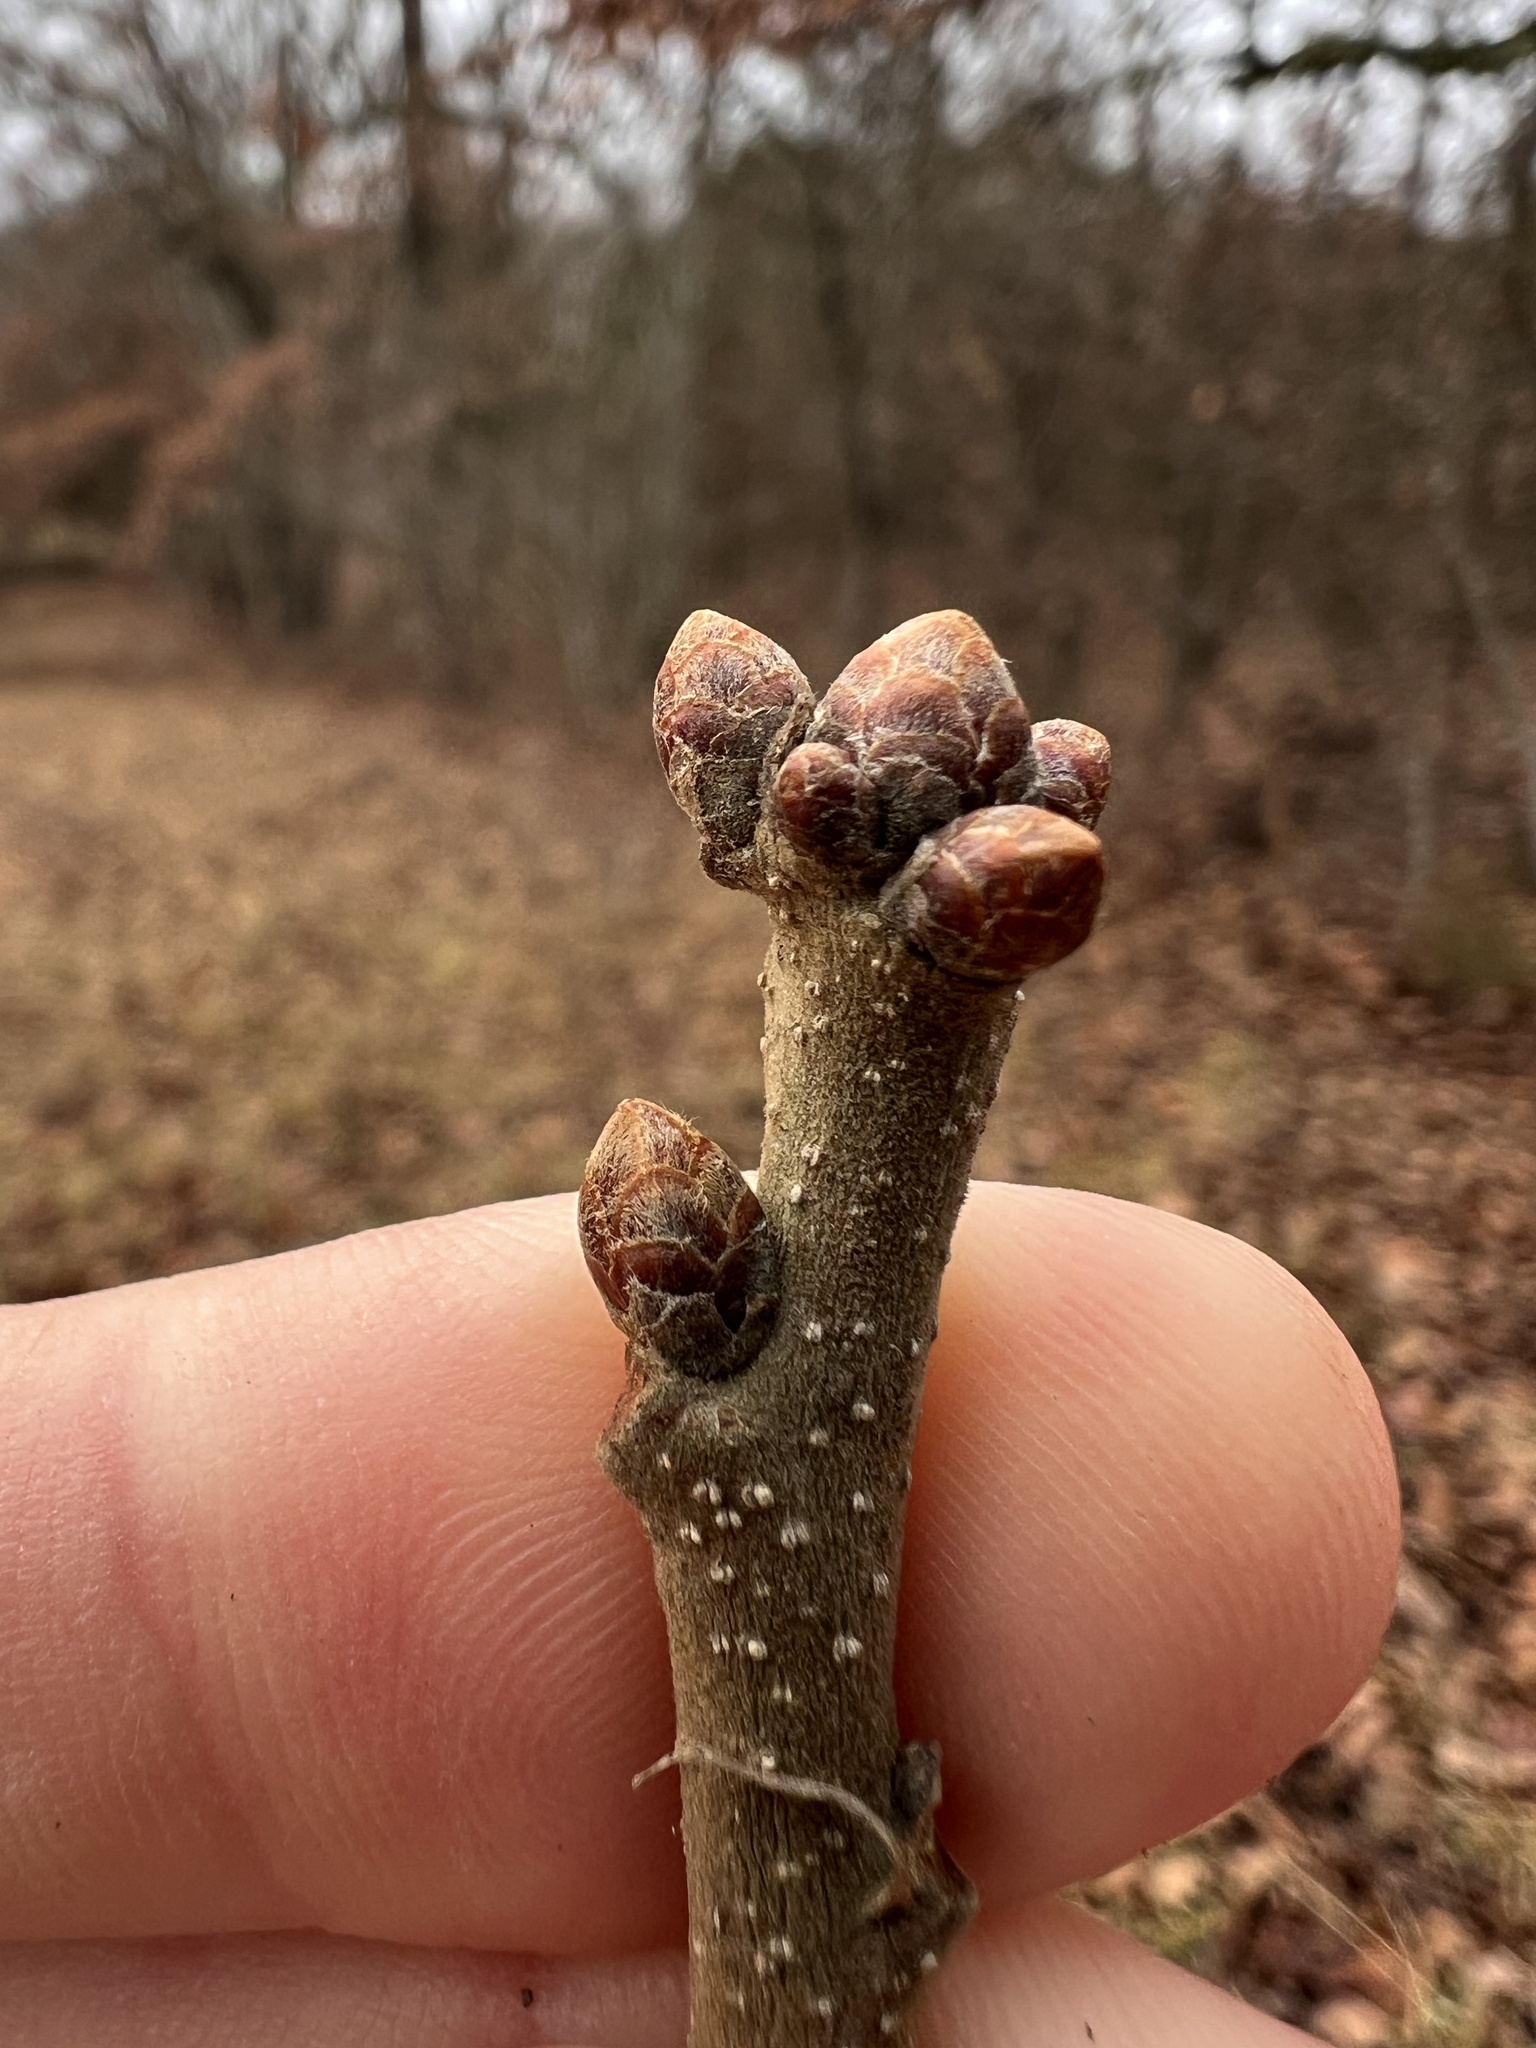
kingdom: Plantae
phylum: Tracheophyta
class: Magnoliopsida
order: Fagales
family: Fagaceae
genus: Quercus
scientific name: Quercus stellata
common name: Post oak
